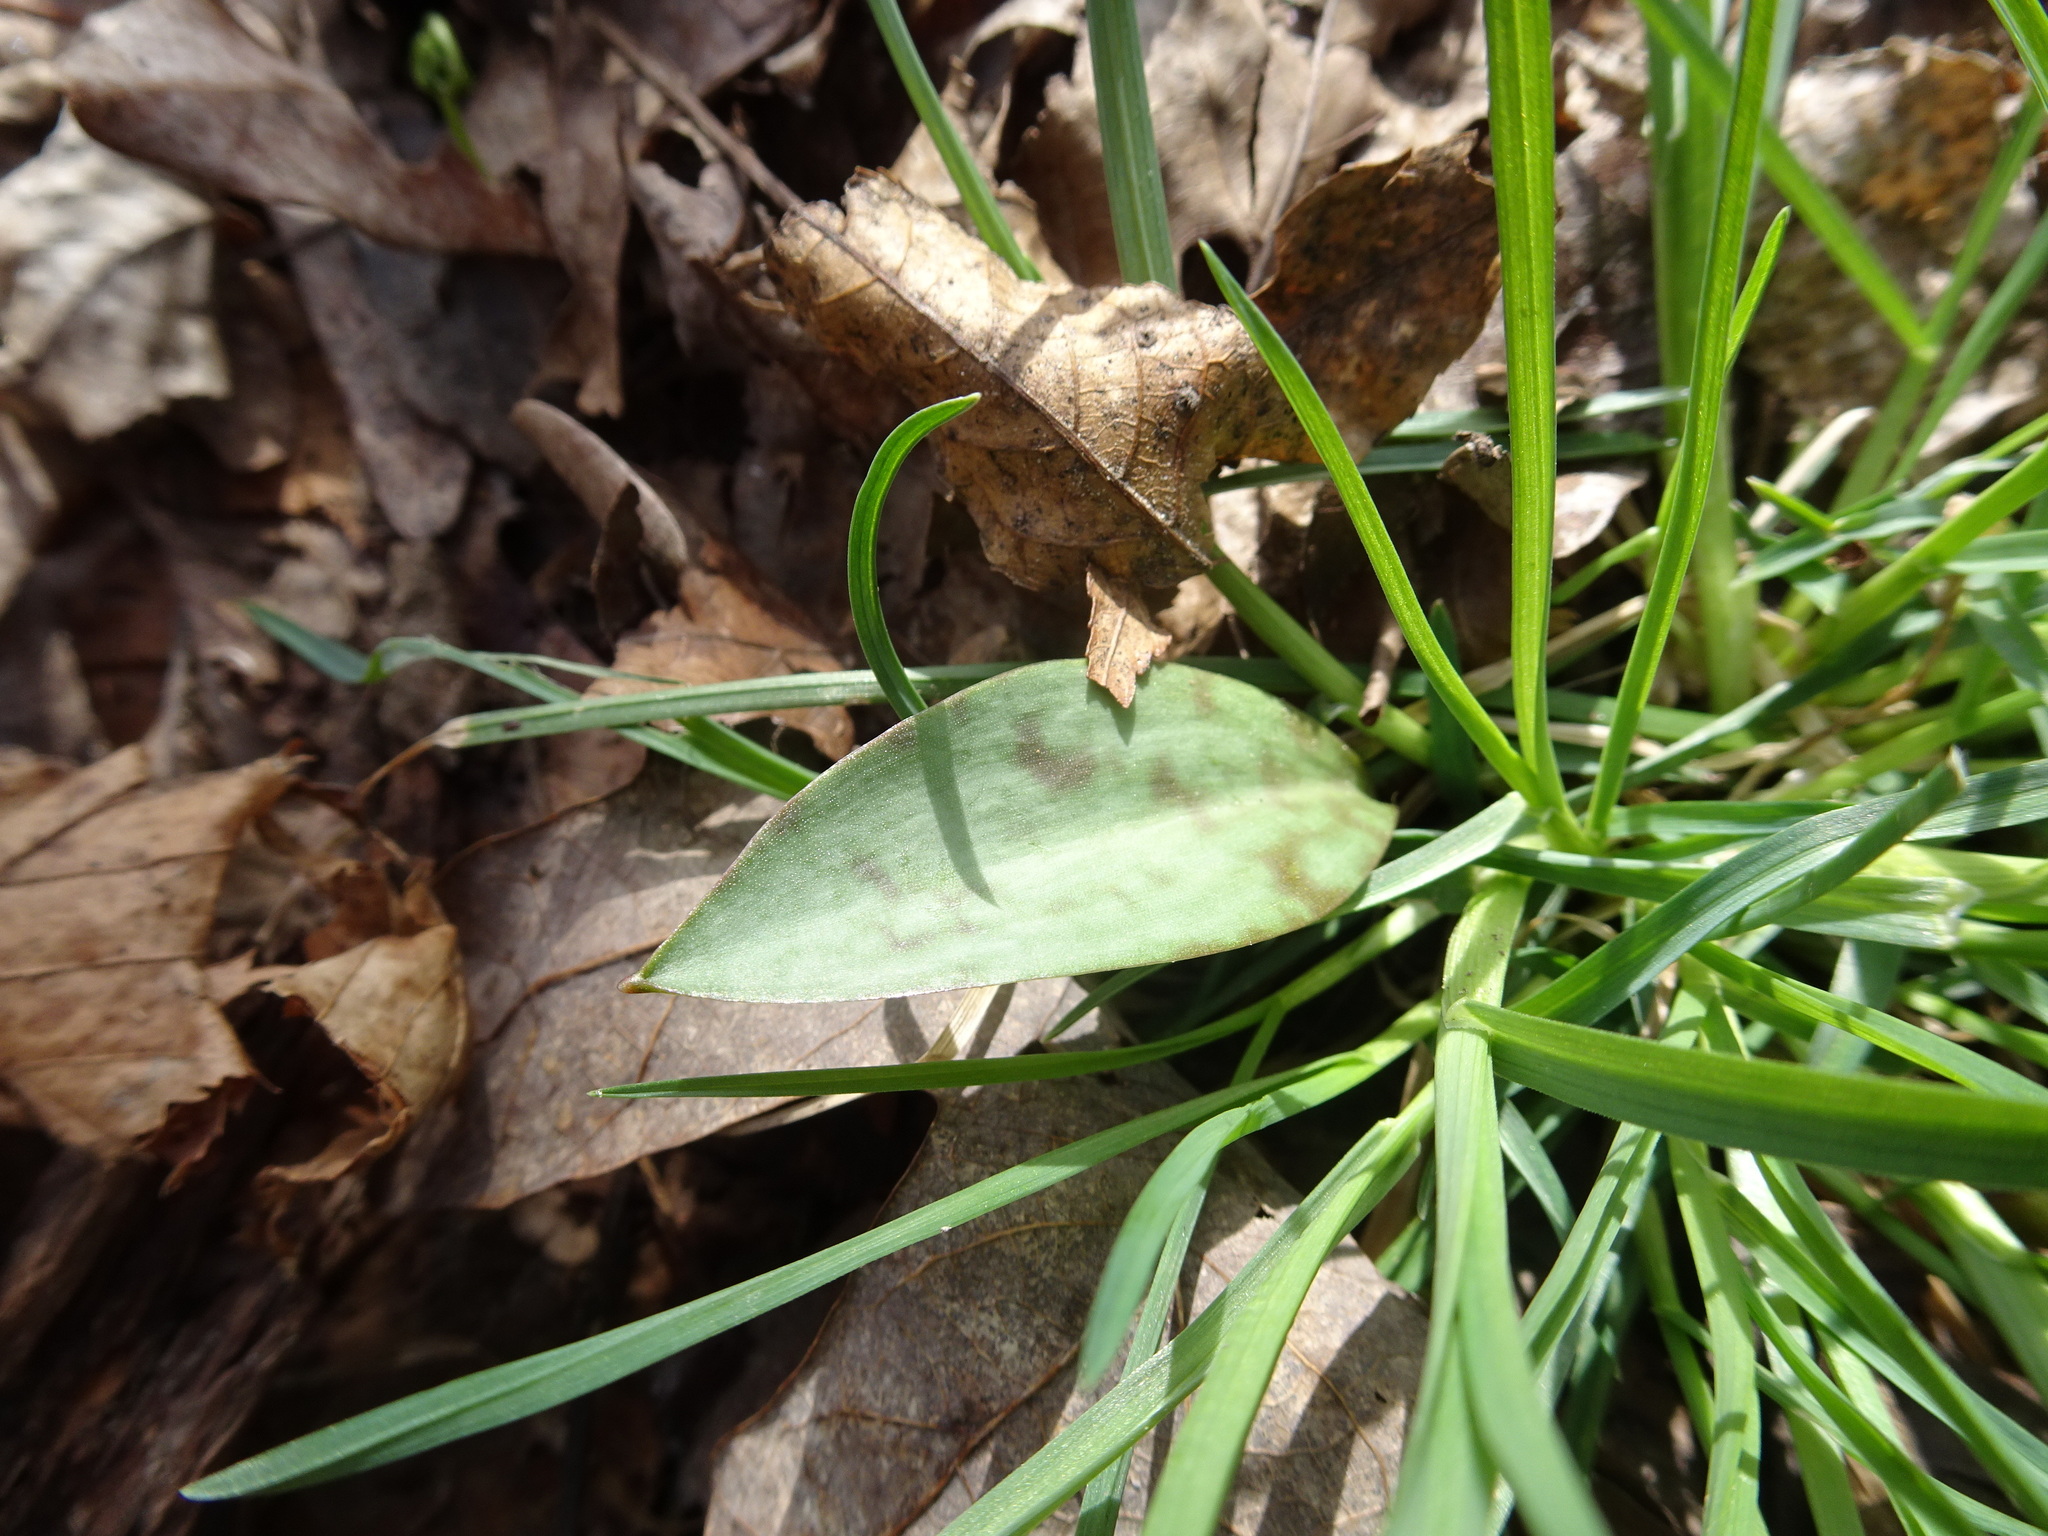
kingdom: Plantae
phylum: Tracheophyta
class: Liliopsida
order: Liliales
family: Liliaceae
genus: Erythronium
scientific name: Erythronium albidum
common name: White trout-lily
